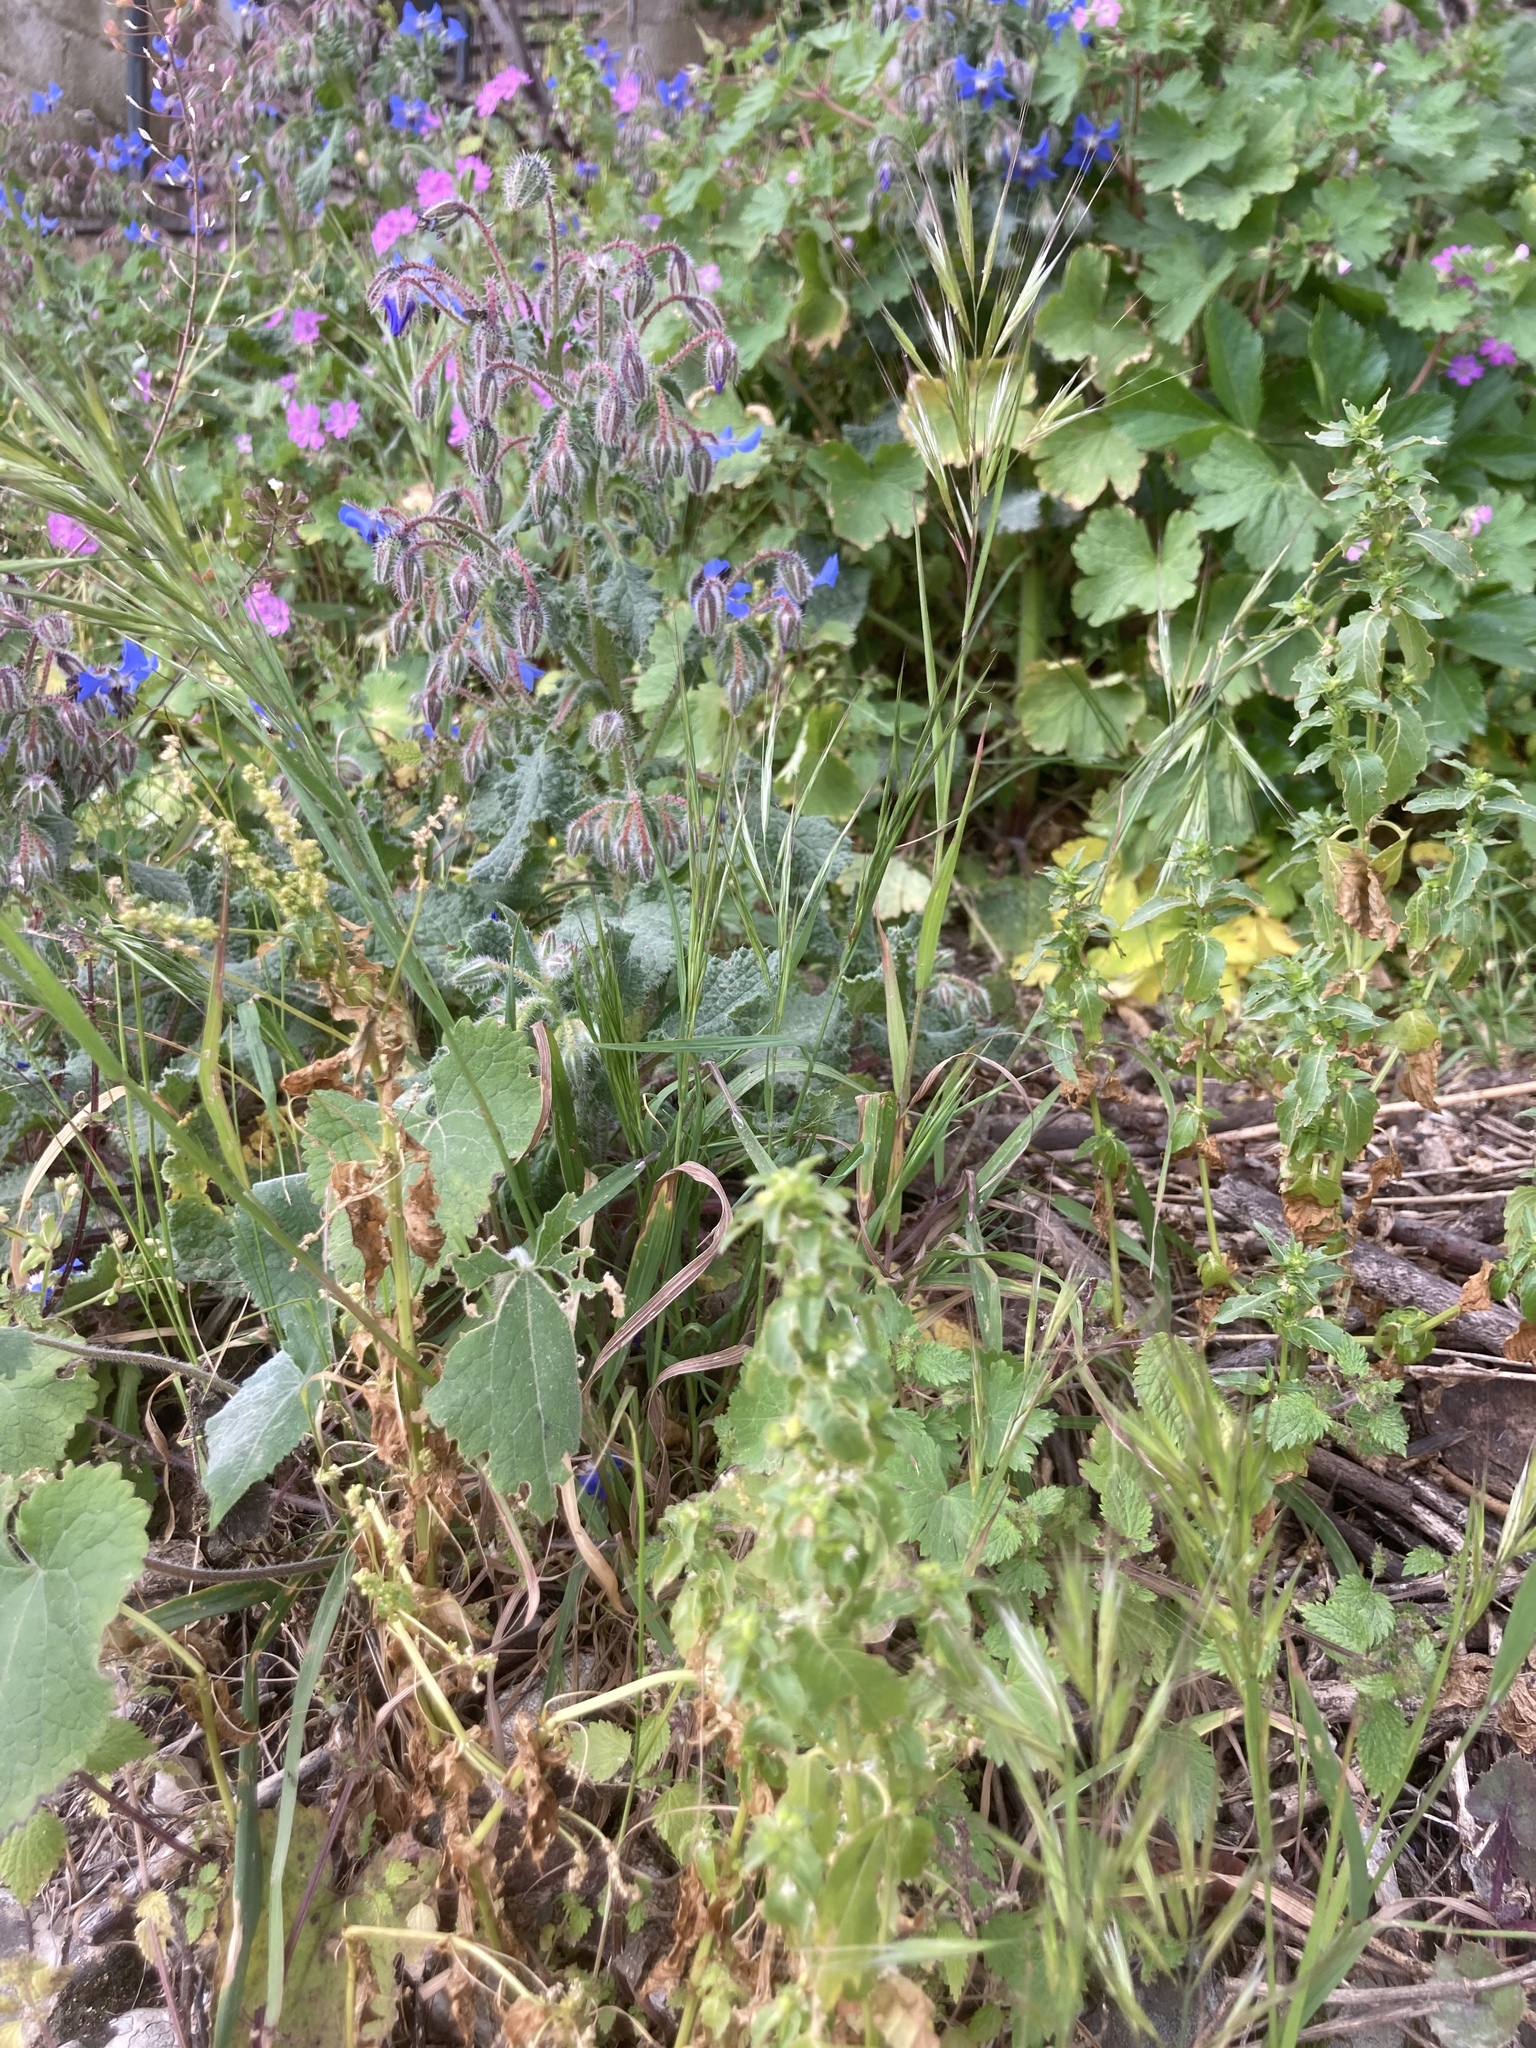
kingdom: Plantae
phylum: Tracheophyta
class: Magnoliopsida
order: Boraginales
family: Boraginaceae
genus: Borago
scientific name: Borago officinalis
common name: Borage
